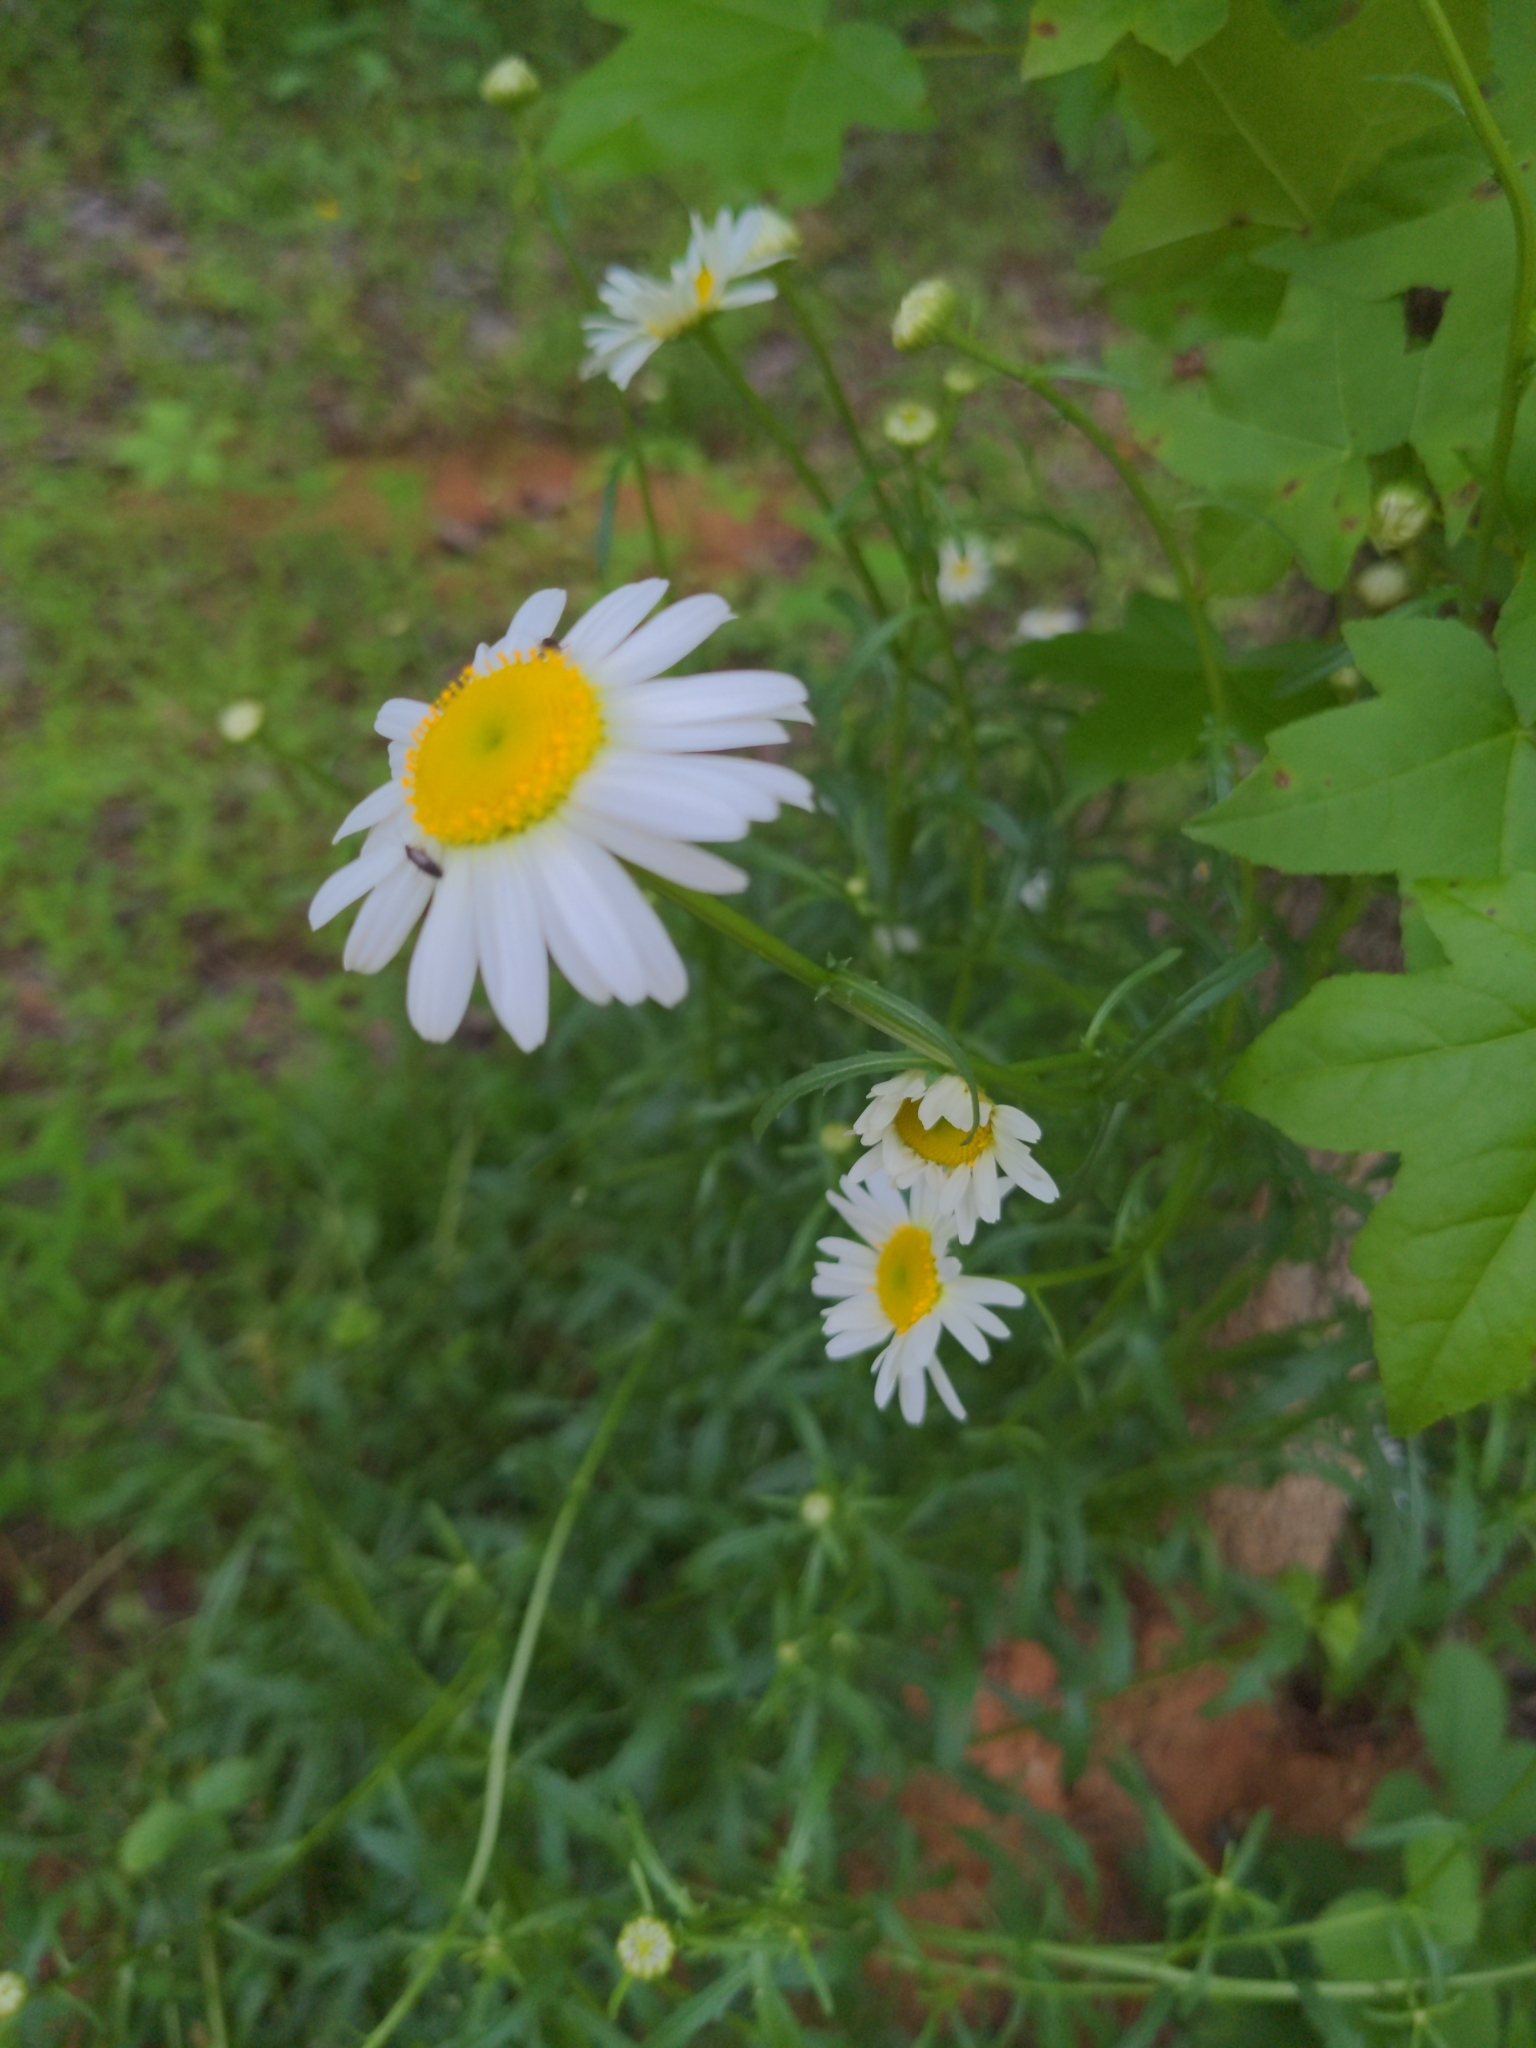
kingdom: Plantae
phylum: Tracheophyta
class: Magnoliopsida
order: Asterales
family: Asteraceae
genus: Leucanthemum
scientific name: Leucanthemum vulgare
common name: Oxeye daisy
